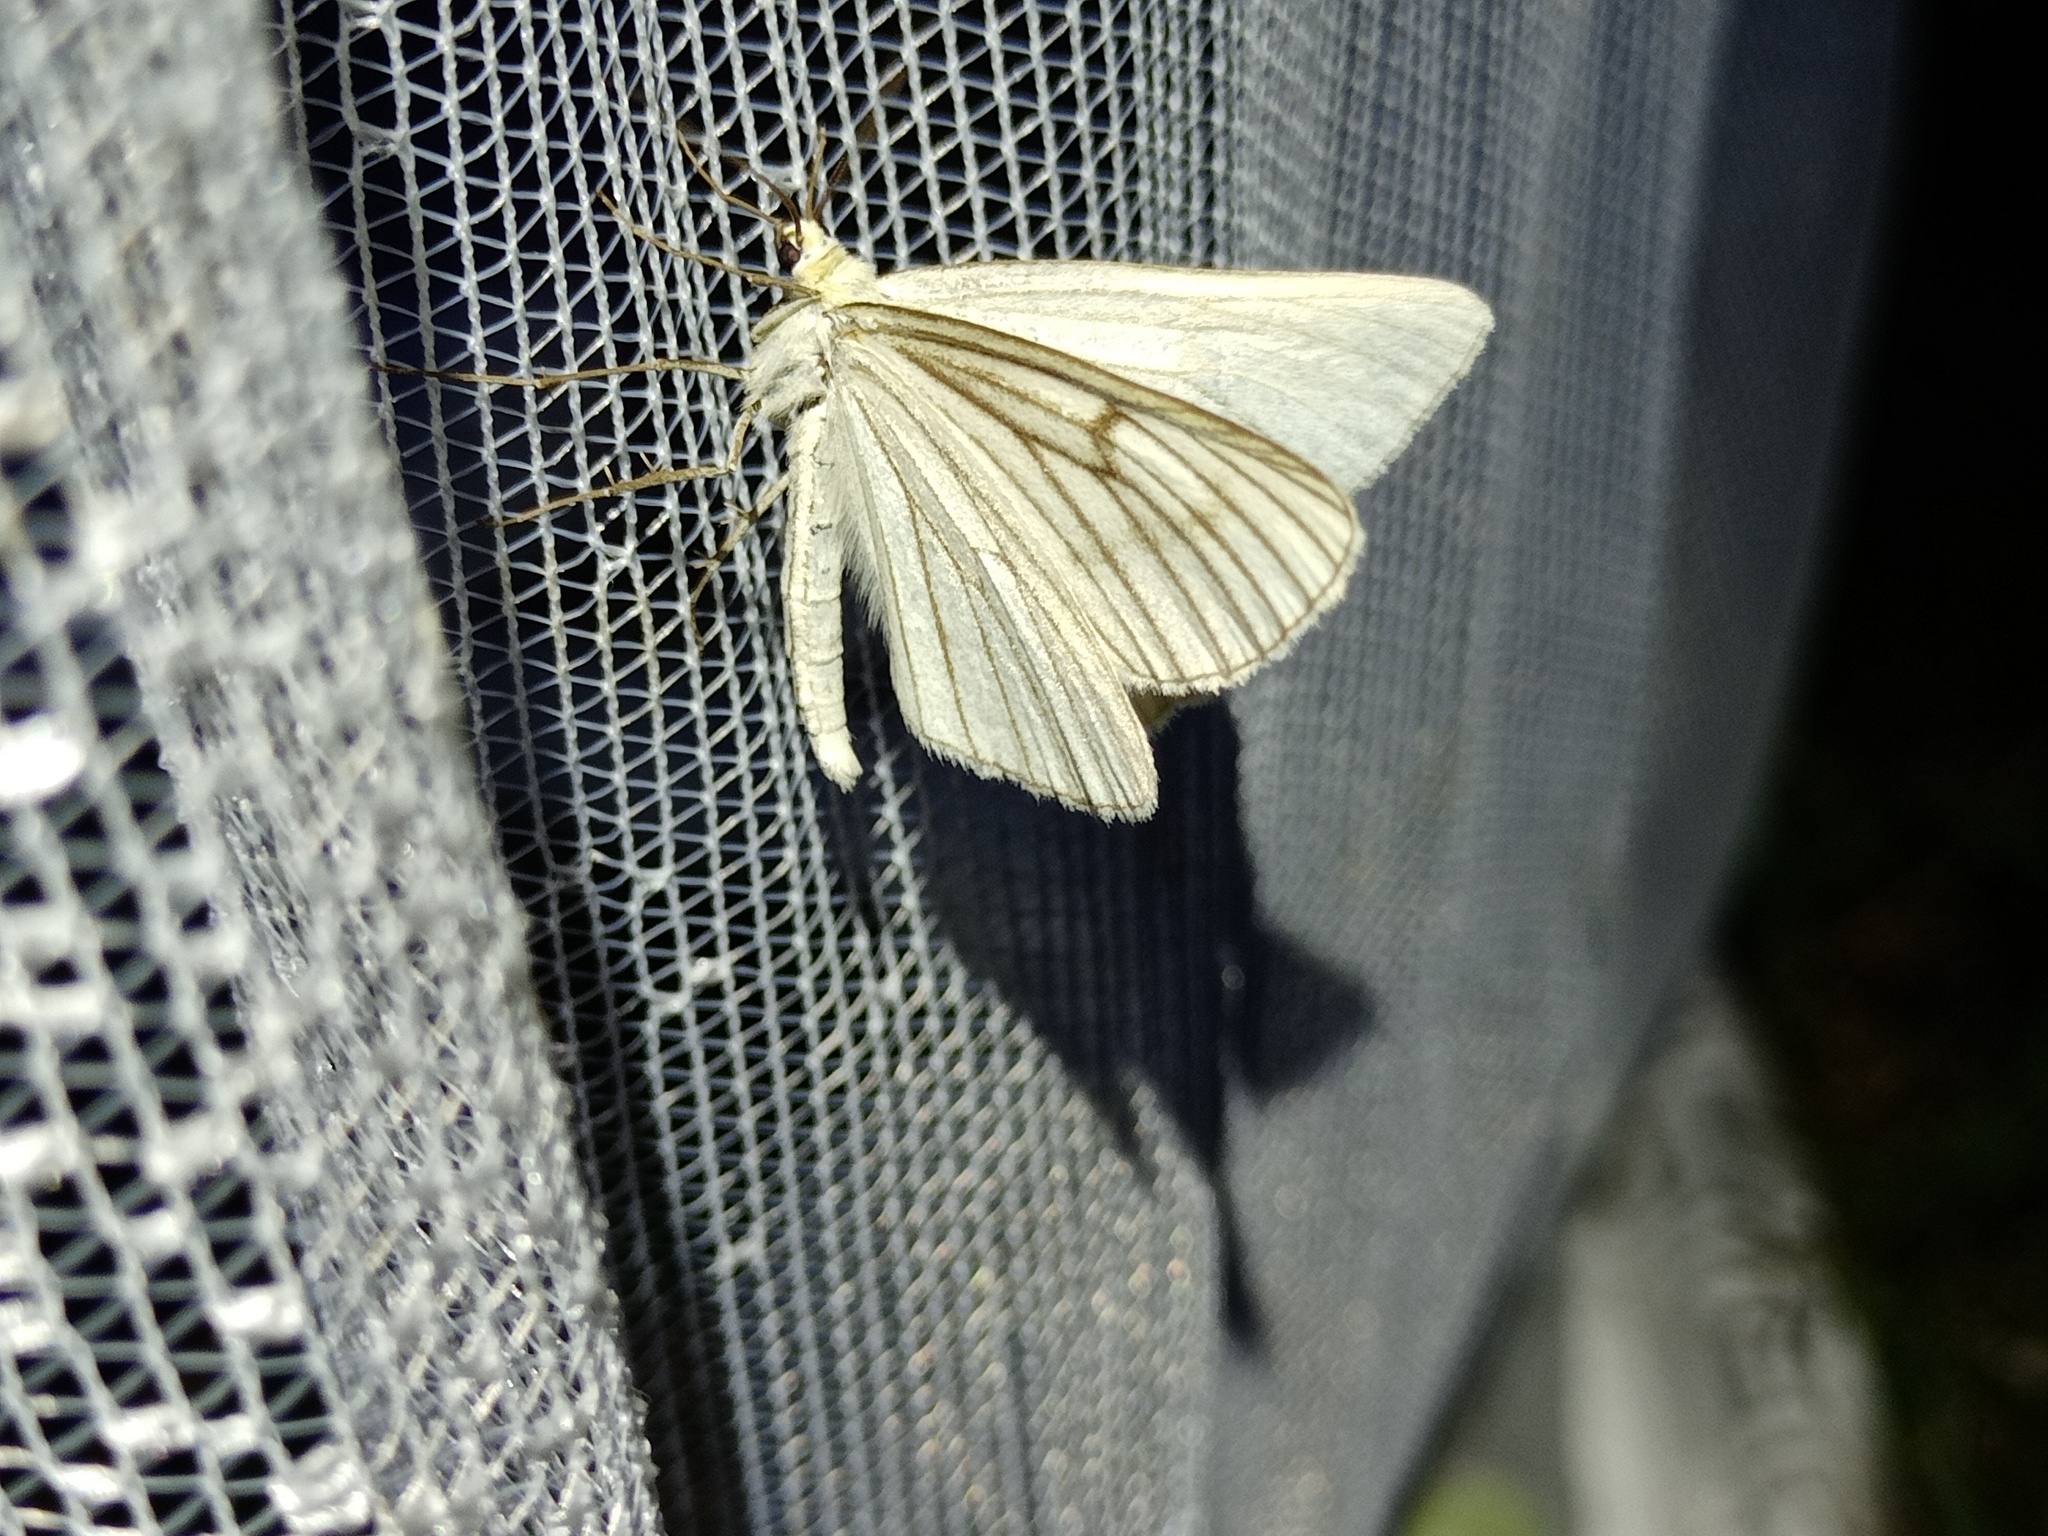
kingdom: Animalia
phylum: Arthropoda
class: Insecta
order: Lepidoptera
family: Geometridae
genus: Siona
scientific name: Siona lineata
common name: Black-veined moth
